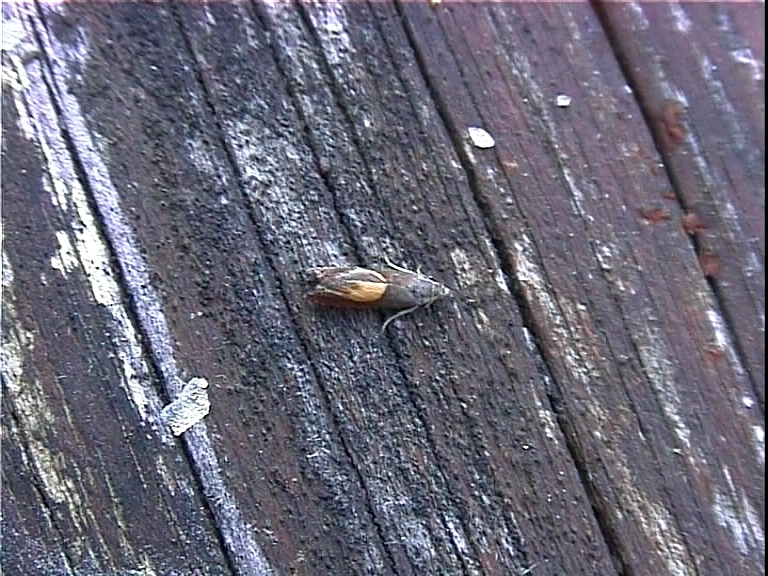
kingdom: Animalia
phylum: Arthropoda
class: Insecta
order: Lepidoptera
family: Tortricidae
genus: Dichrorampha
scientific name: Dichrorampha petiverella
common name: Common drill
